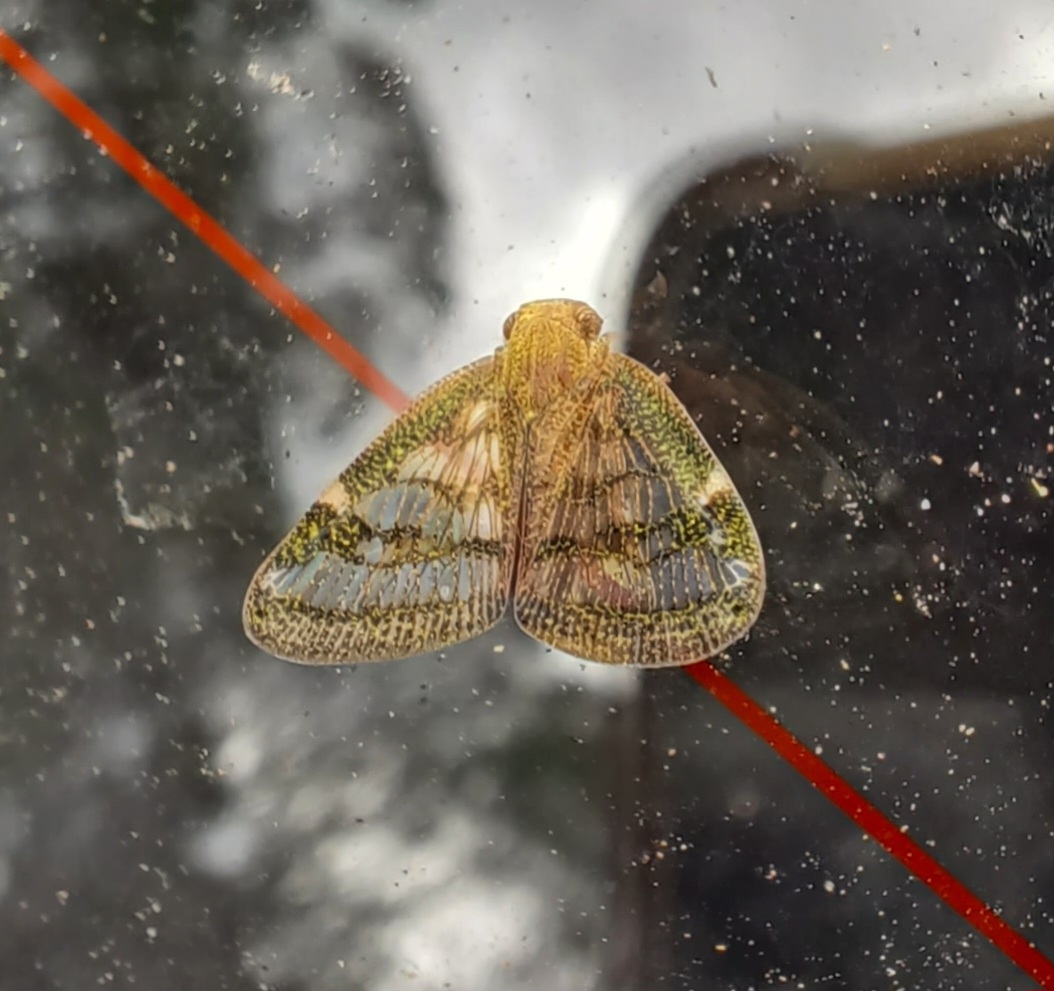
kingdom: Animalia
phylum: Arthropoda
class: Insecta
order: Hemiptera
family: Ricaniidae
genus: Scolypopa
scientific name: Scolypopa australis
